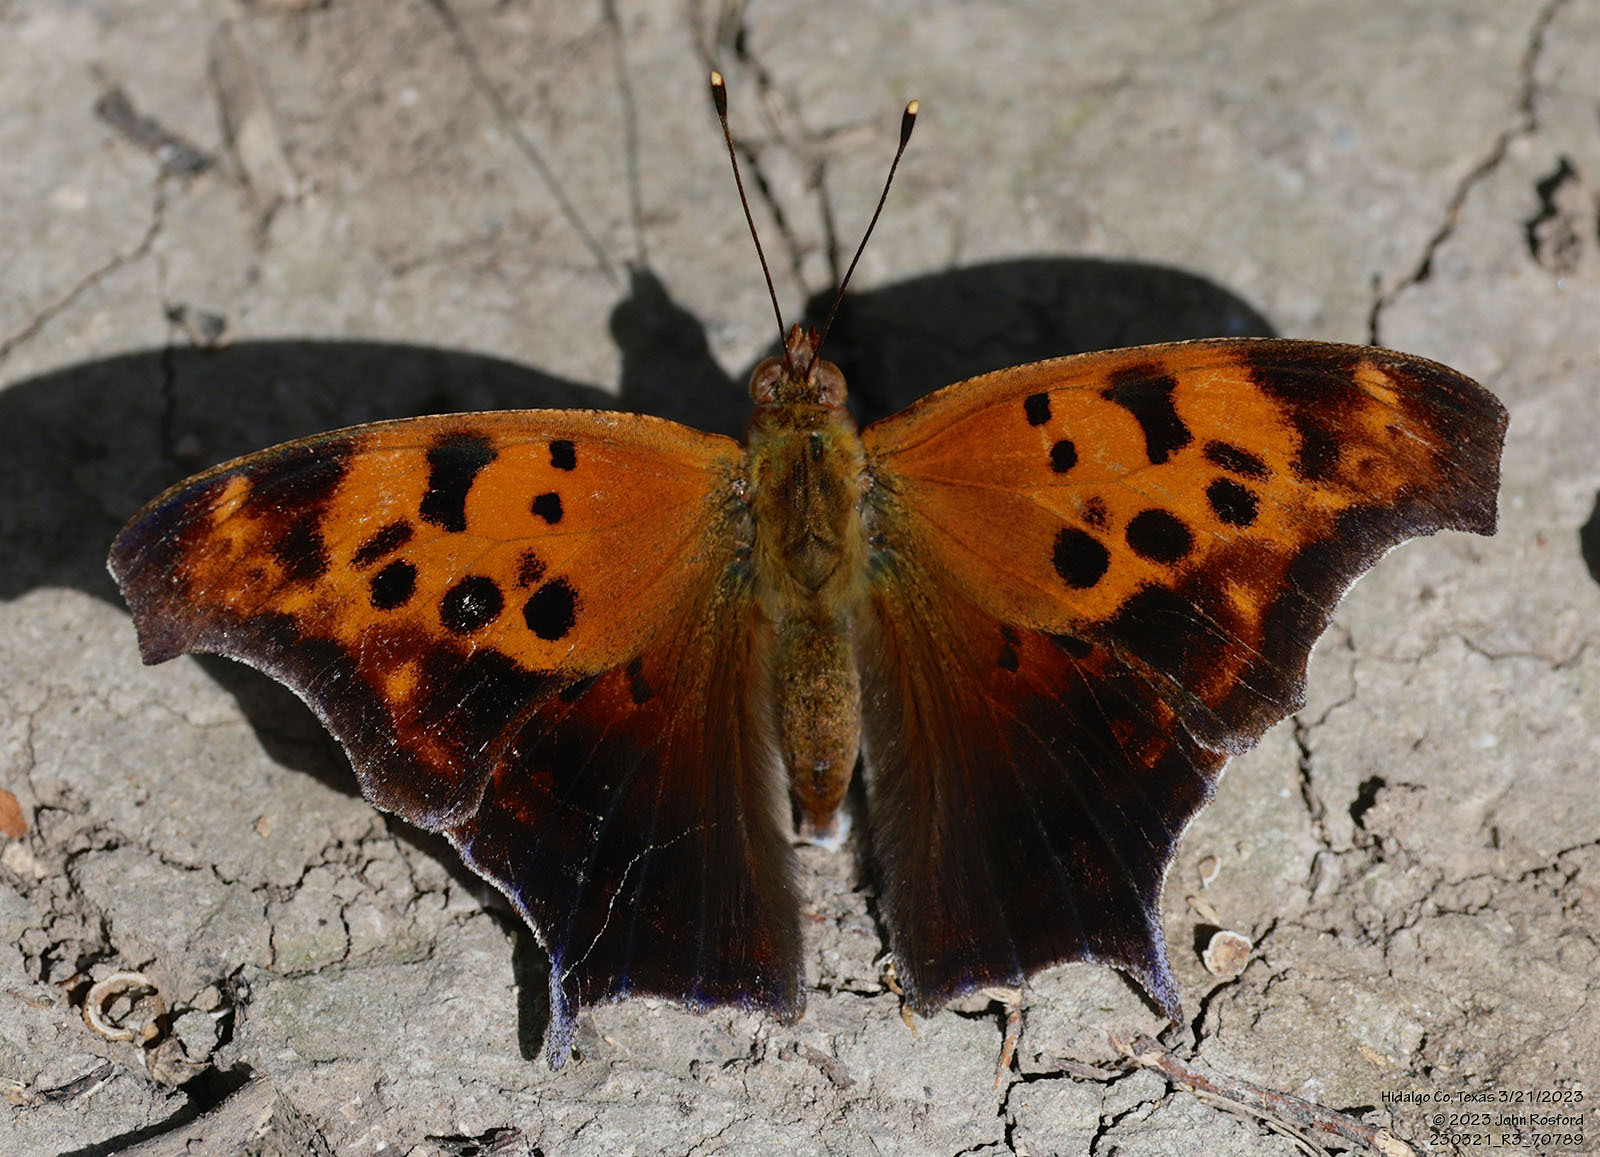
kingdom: Animalia
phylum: Arthropoda
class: Insecta
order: Lepidoptera
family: Nymphalidae
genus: Polygonia
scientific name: Polygonia interrogationis
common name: Question mark
